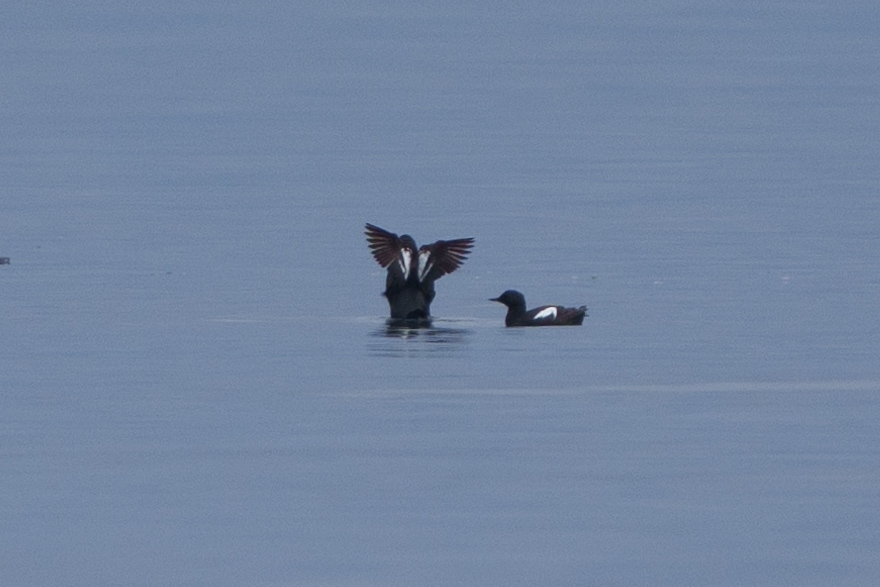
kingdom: Animalia
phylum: Chordata
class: Aves
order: Charadriiformes
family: Alcidae
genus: Cepphus
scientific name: Cepphus columba
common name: Pigeon guillemot
